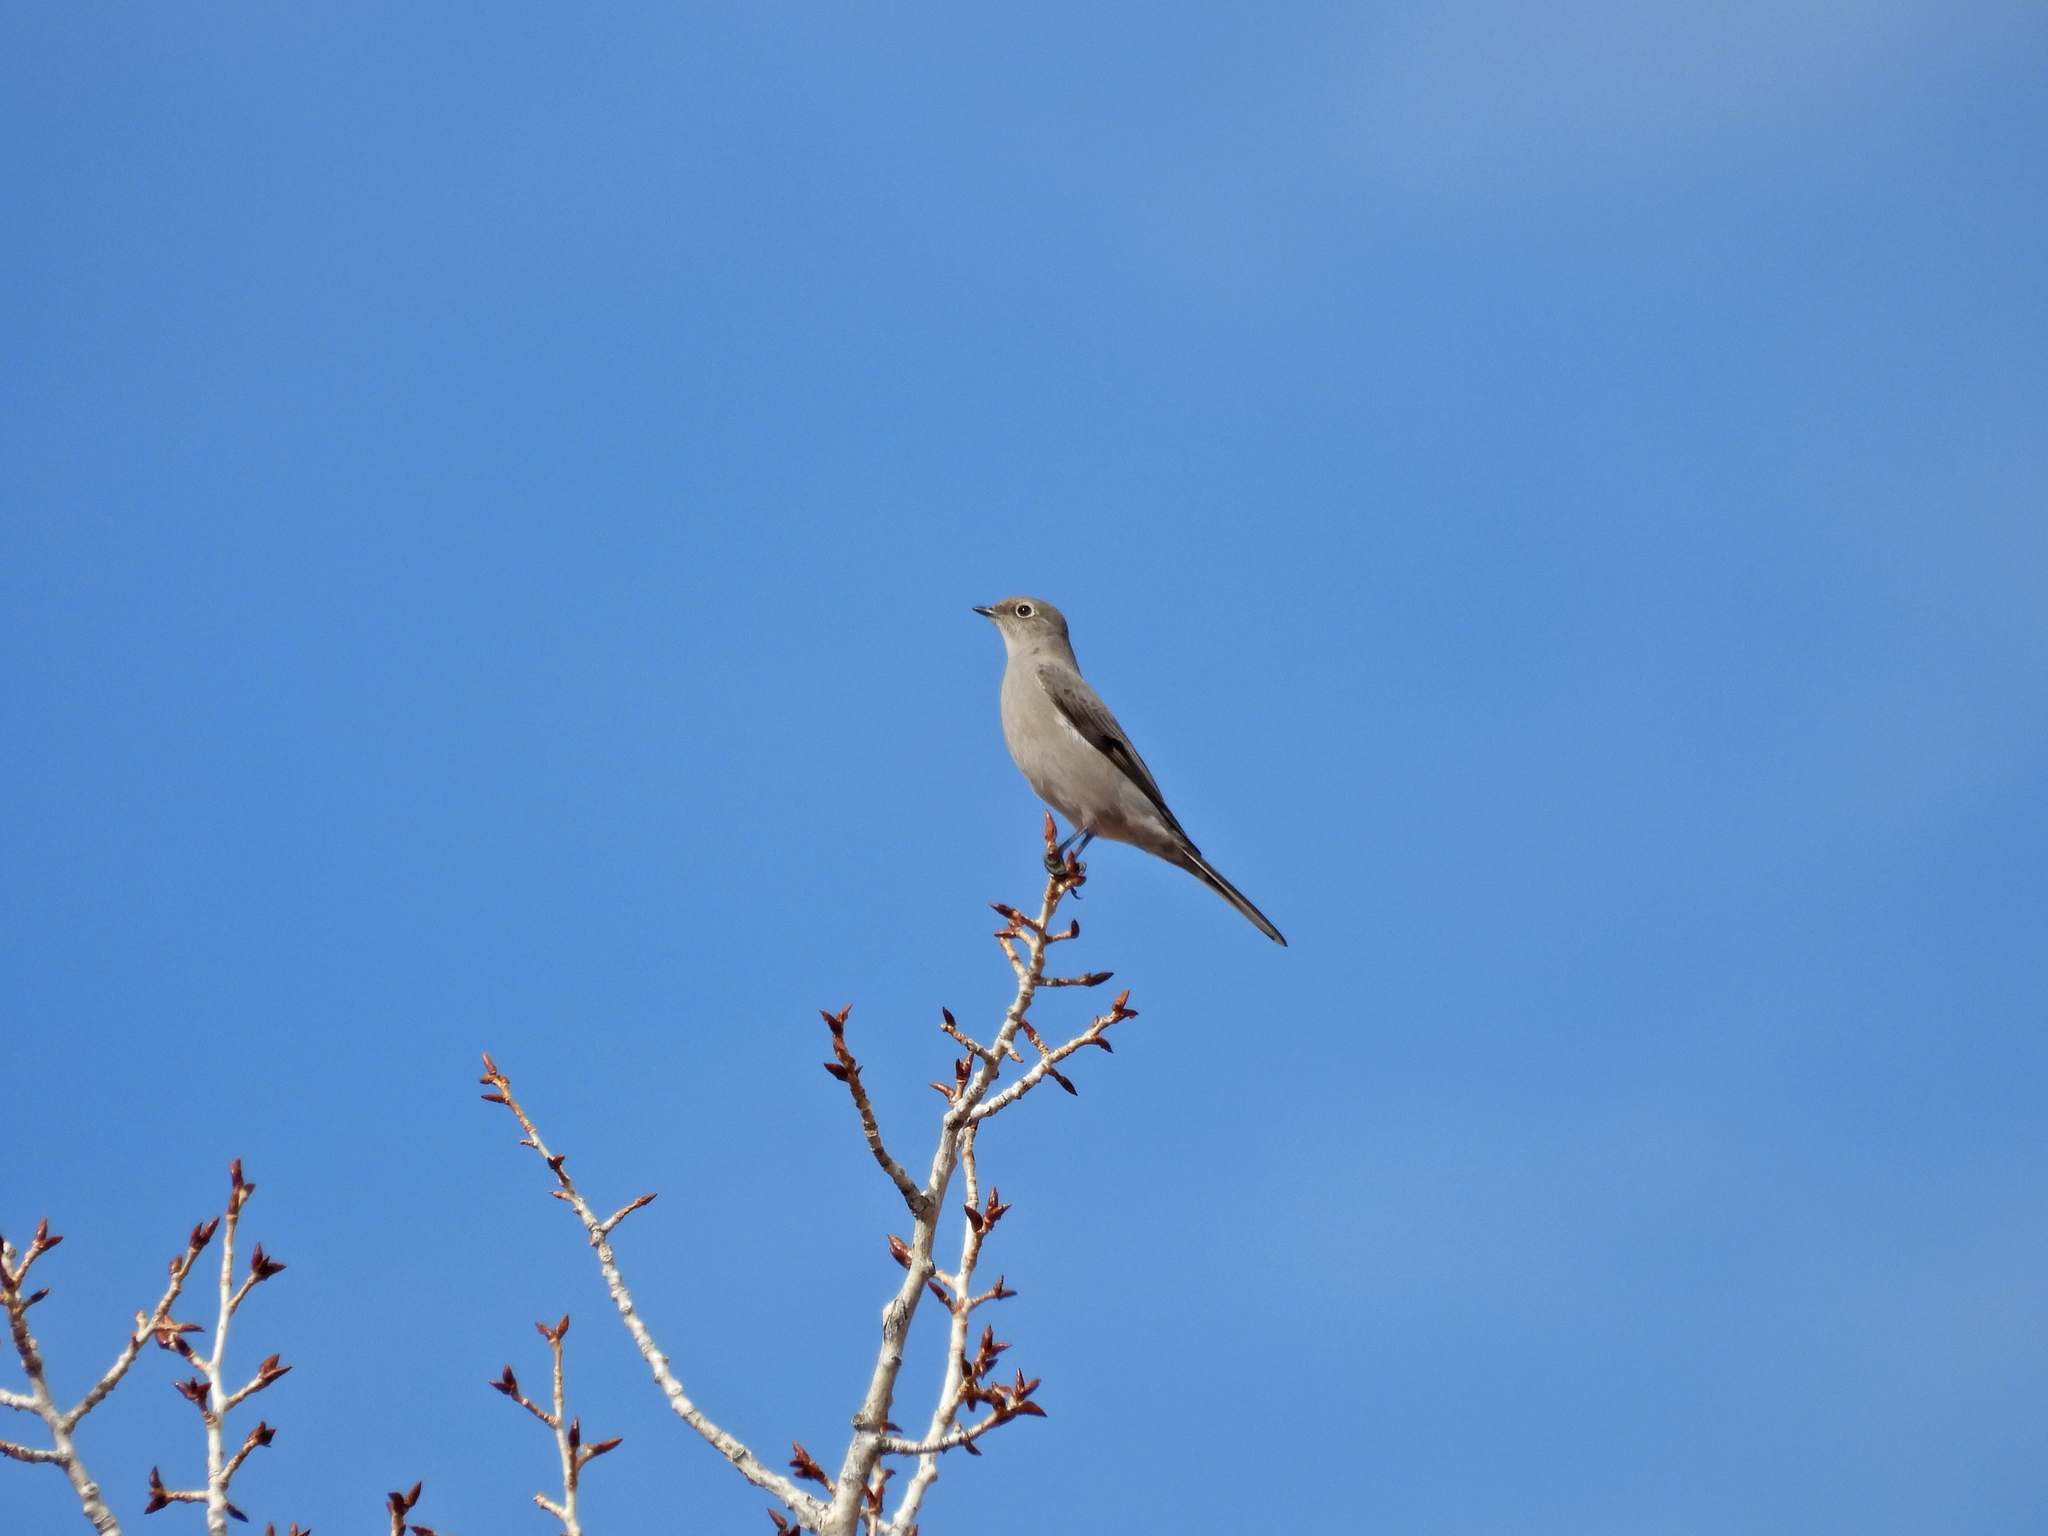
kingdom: Animalia
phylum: Chordata
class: Aves
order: Passeriformes
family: Turdidae
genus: Myadestes
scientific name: Myadestes townsendi
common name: Townsend's solitaire
